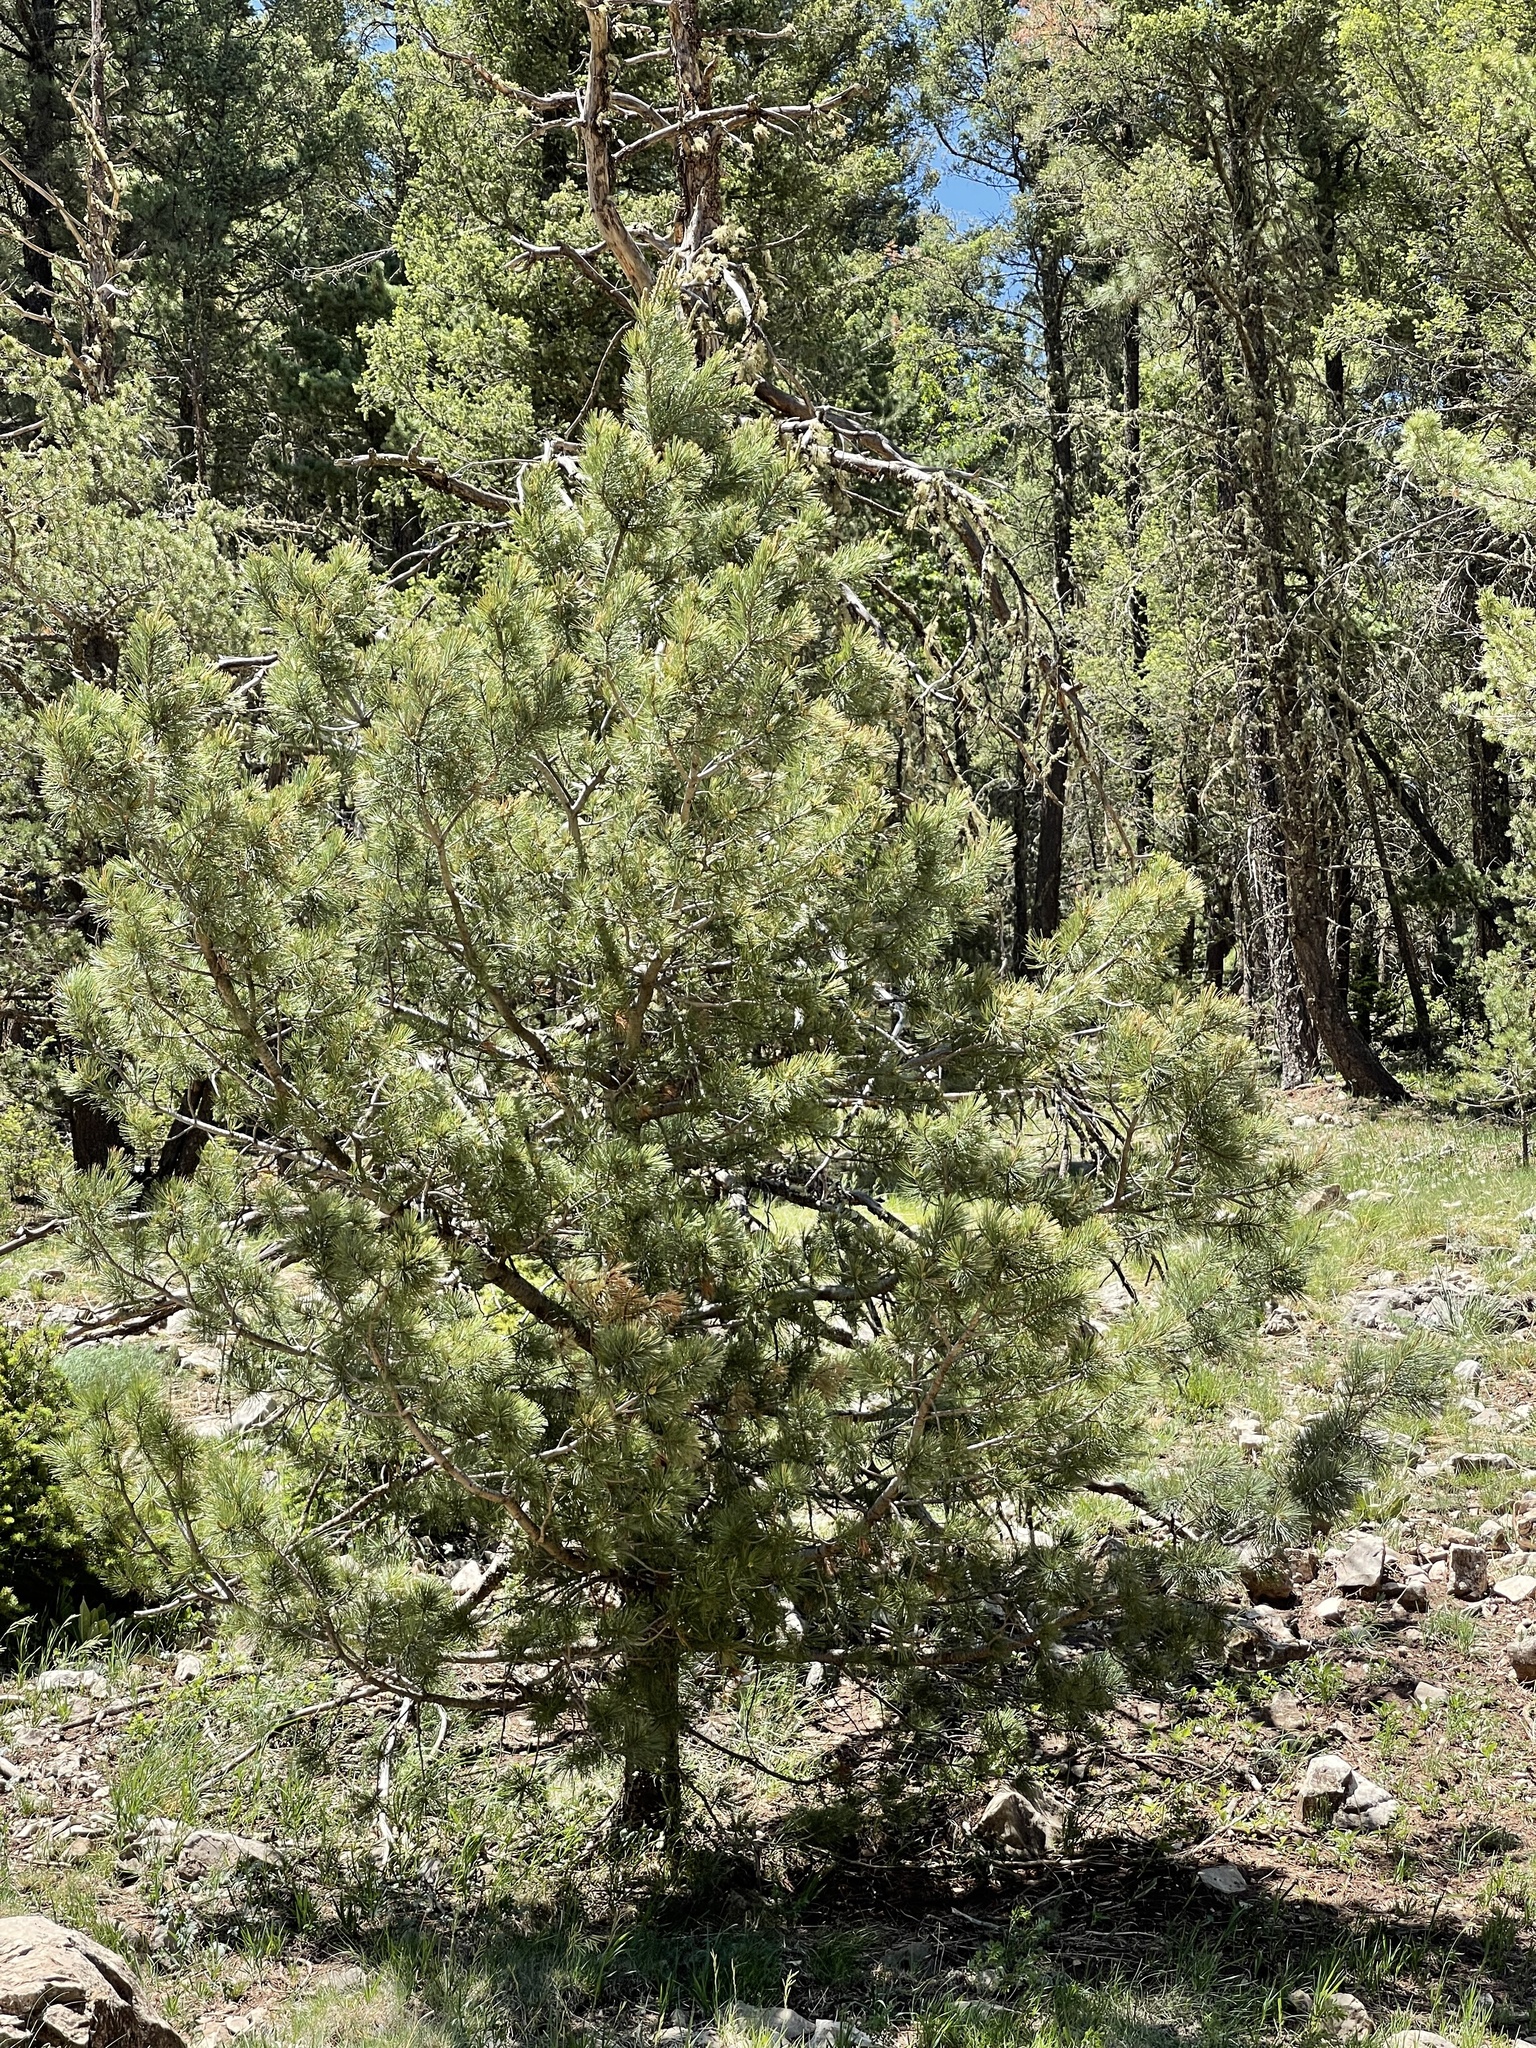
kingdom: Plantae
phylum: Tracheophyta
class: Pinopsida
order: Pinales
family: Pinaceae
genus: Pinus
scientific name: Pinus strobiformis
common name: Southwestern white pine
